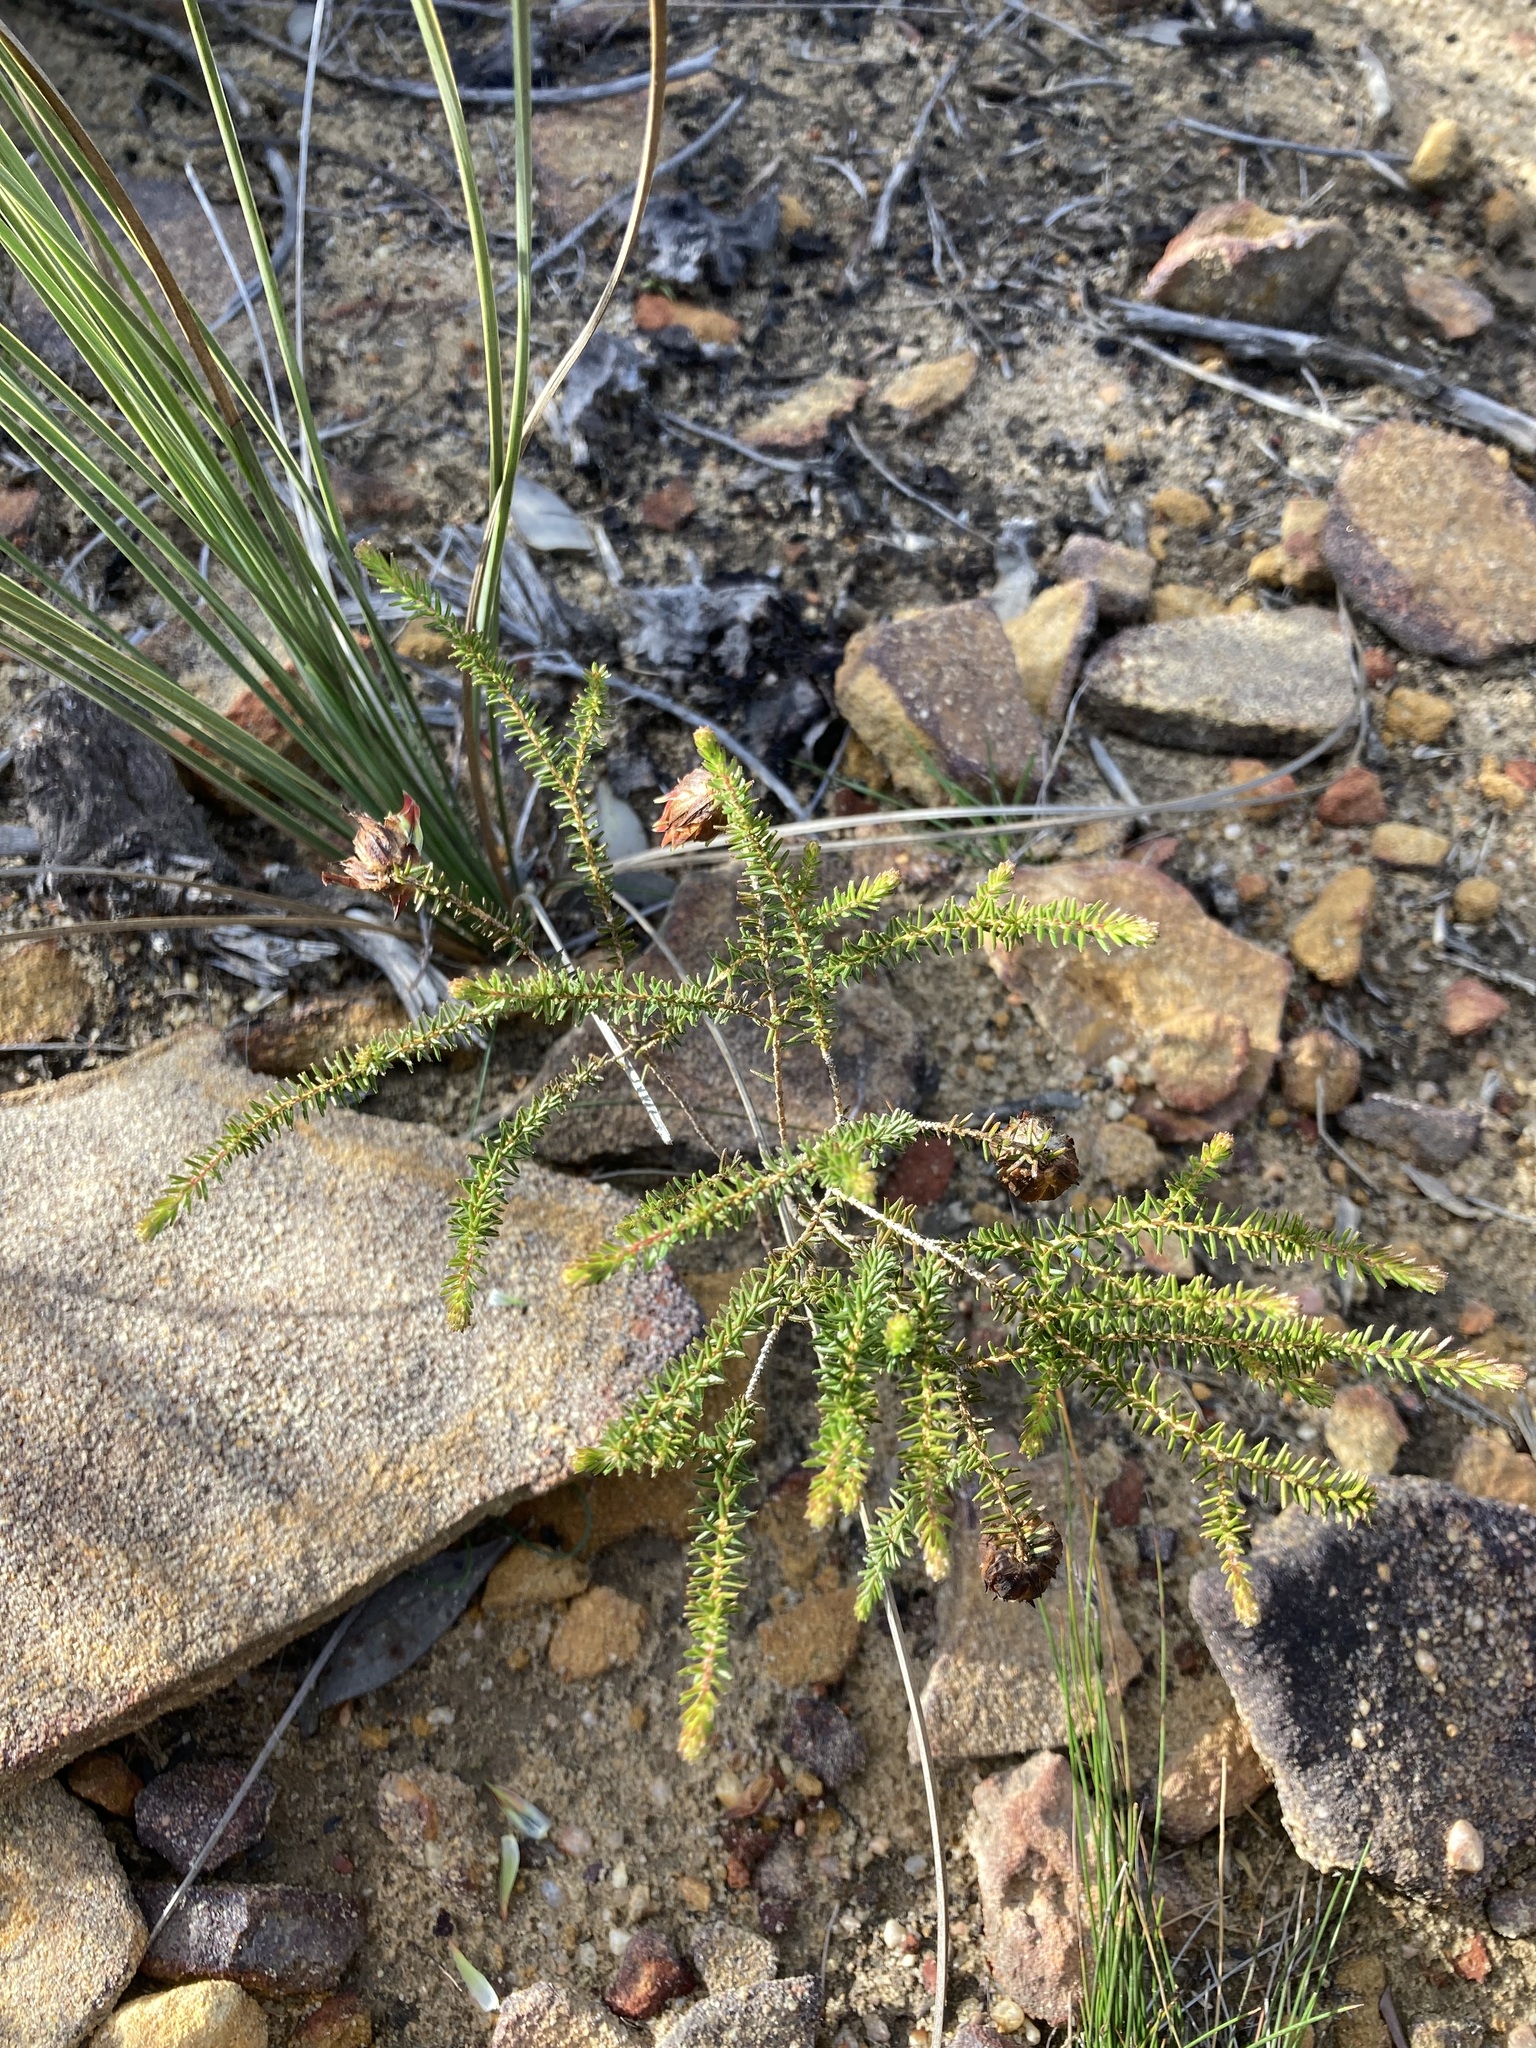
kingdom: Plantae
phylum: Tracheophyta
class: Magnoliopsida
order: Myrtales
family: Myrtaceae
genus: Darwinia
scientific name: Darwinia helichrysoides
